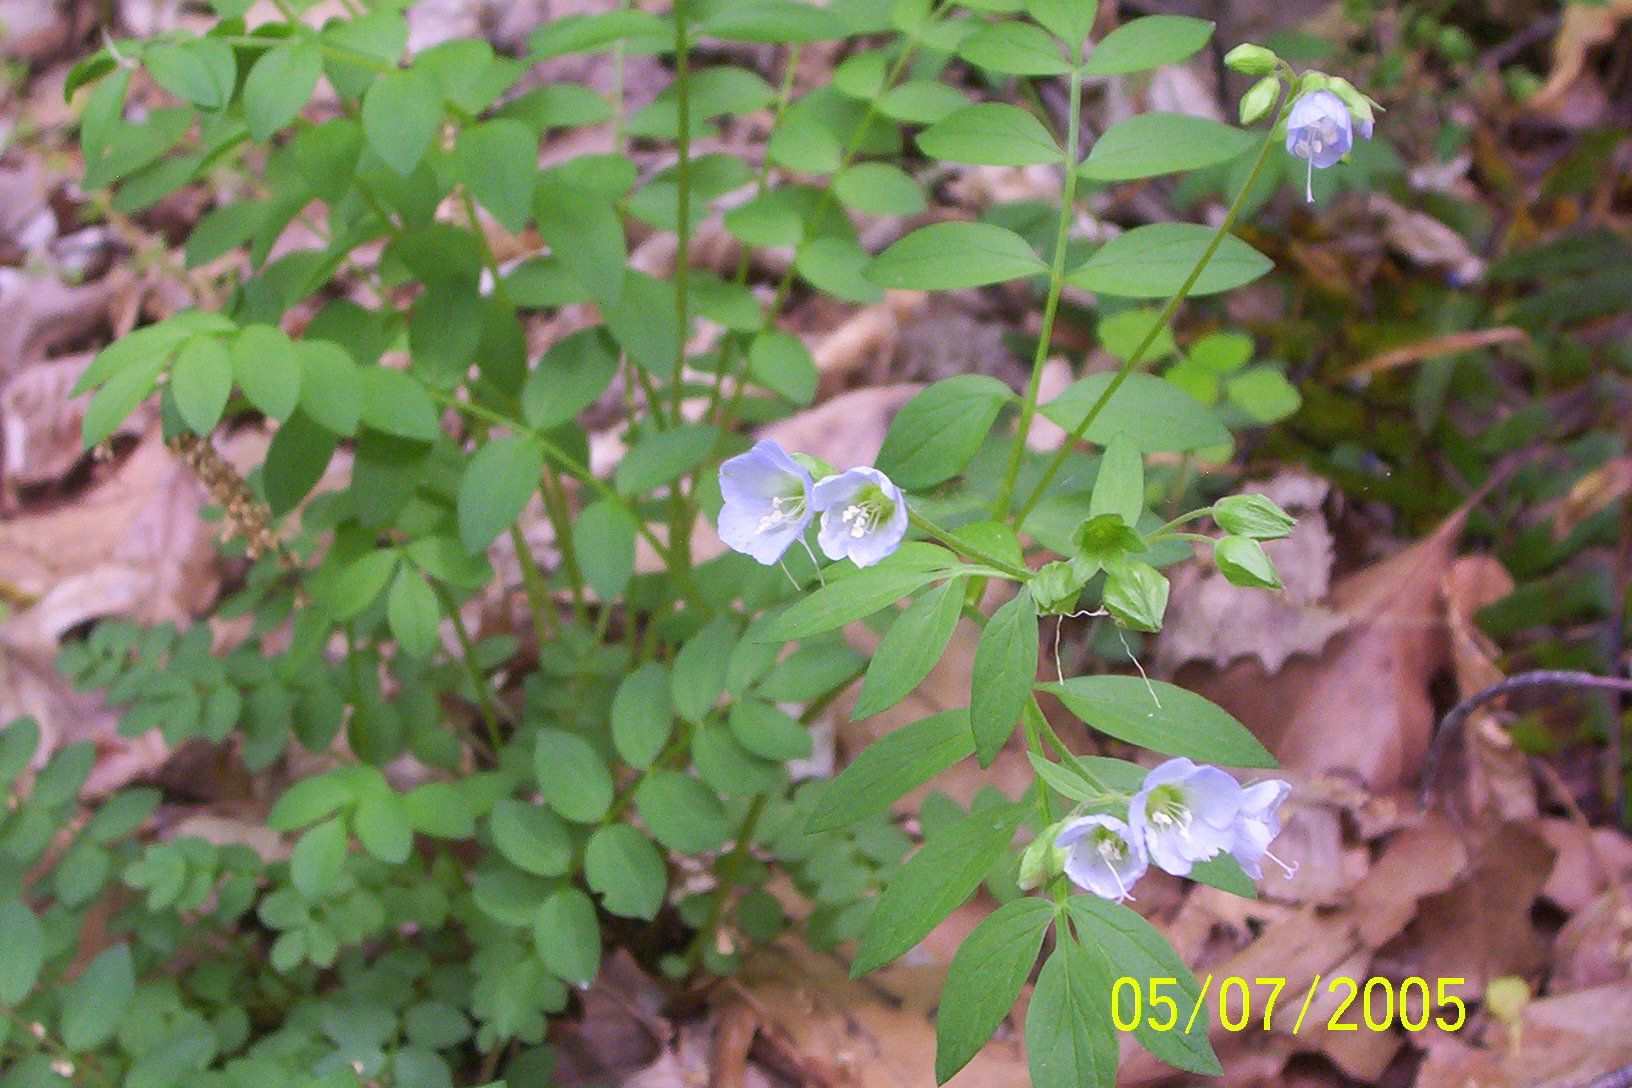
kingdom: Plantae
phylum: Tracheophyta
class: Magnoliopsida
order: Ericales
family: Polemoniaceae
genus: Polemonium
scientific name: Polemonium reptans
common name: Creeping jacob's-ladder
